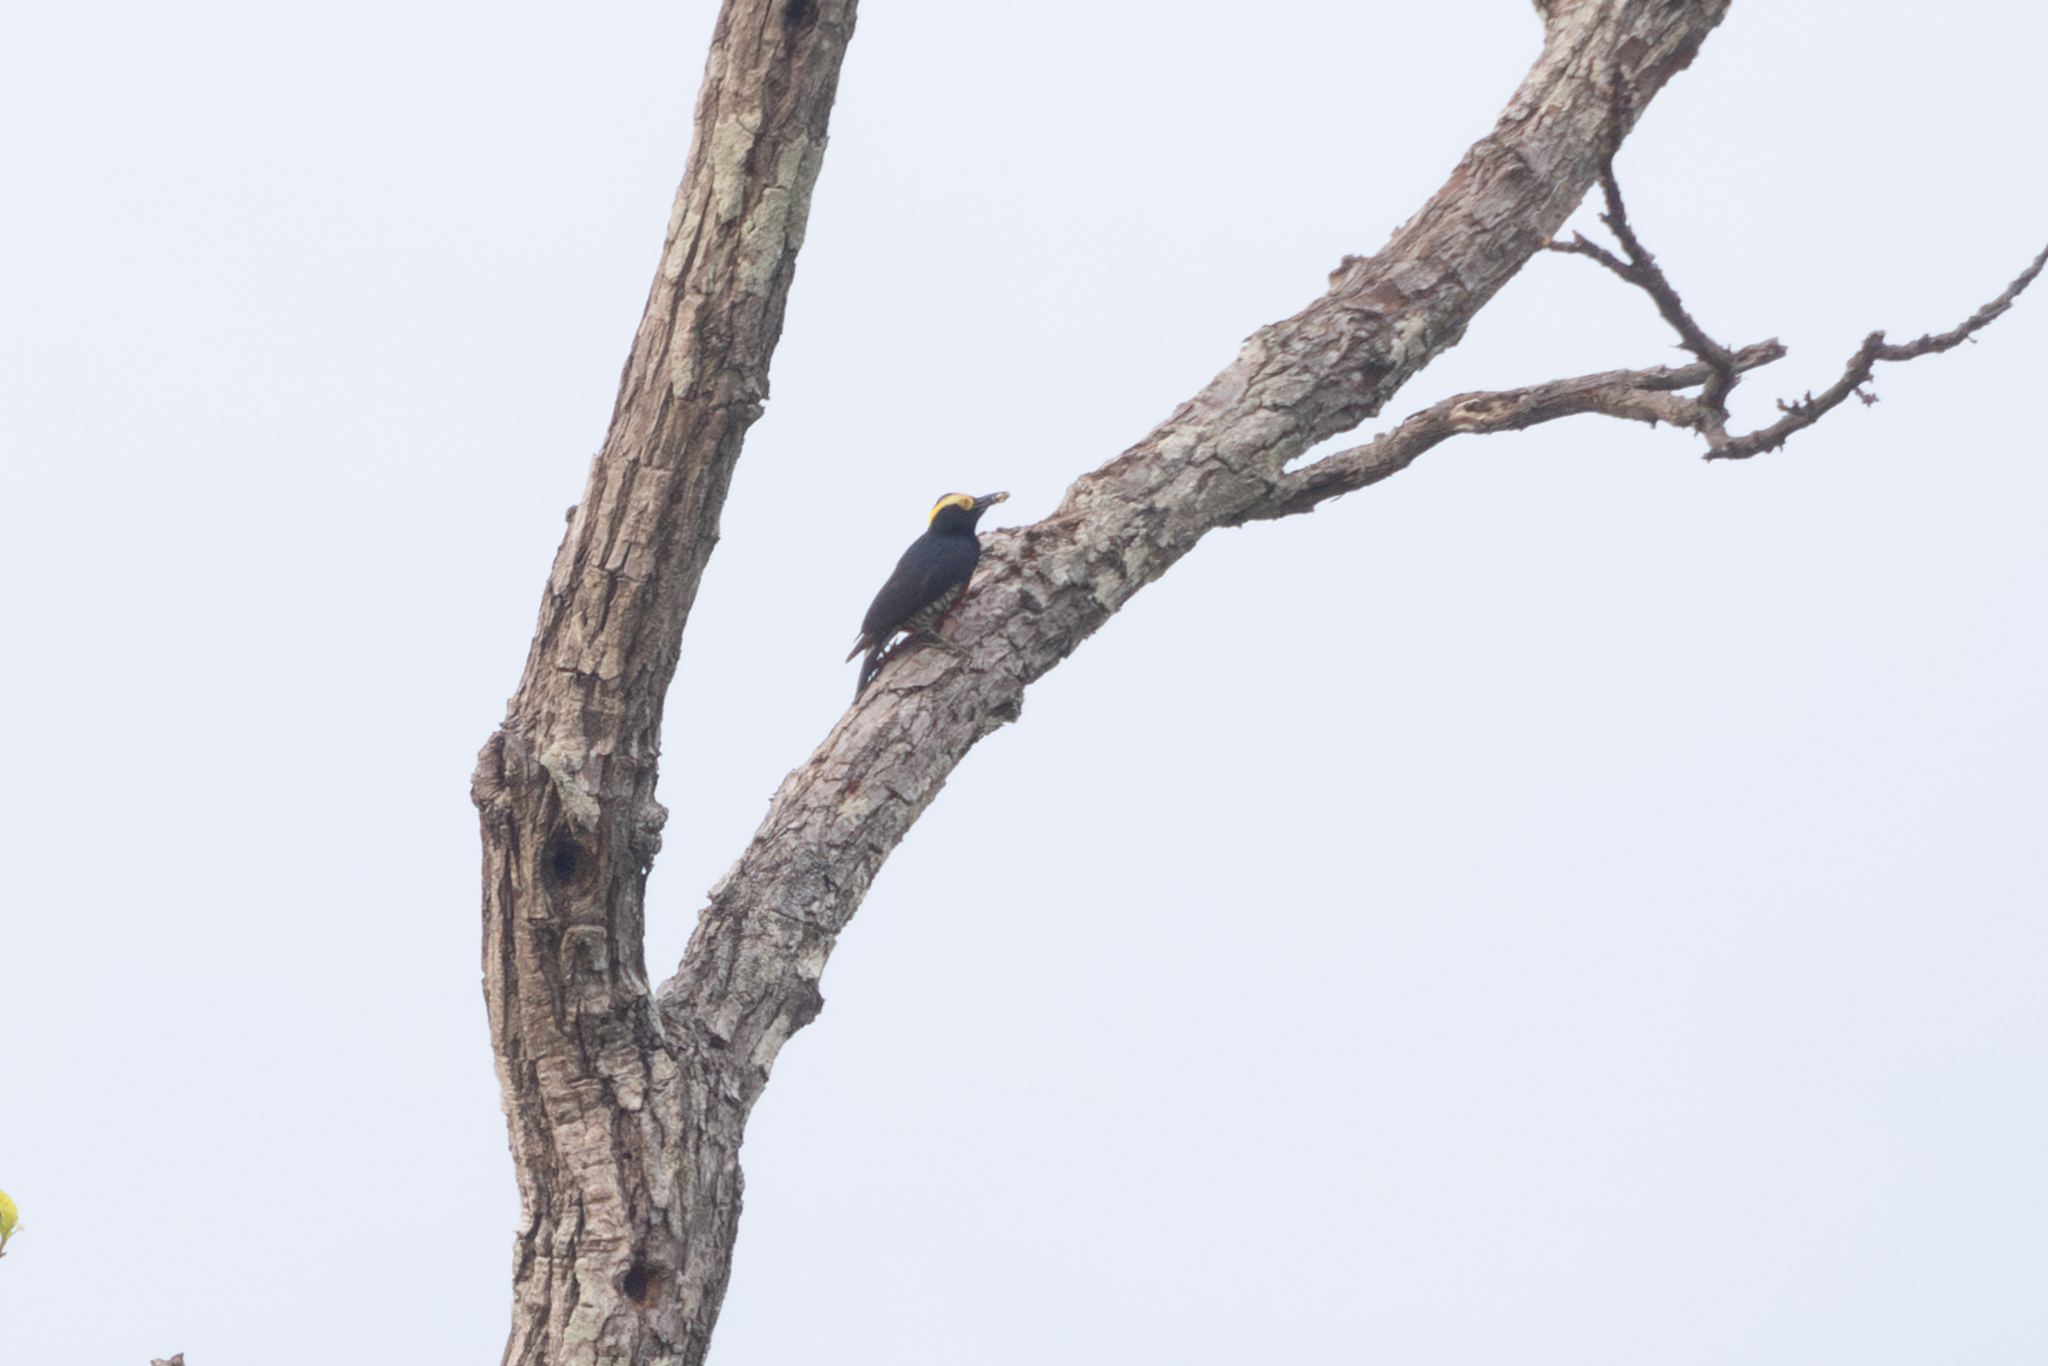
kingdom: Animalia
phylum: Chordata
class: Aves
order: Piciformes
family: Picidae
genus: Melanerpes
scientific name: Melanerpes cruentatus
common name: Yellow-tufted woodpecker
